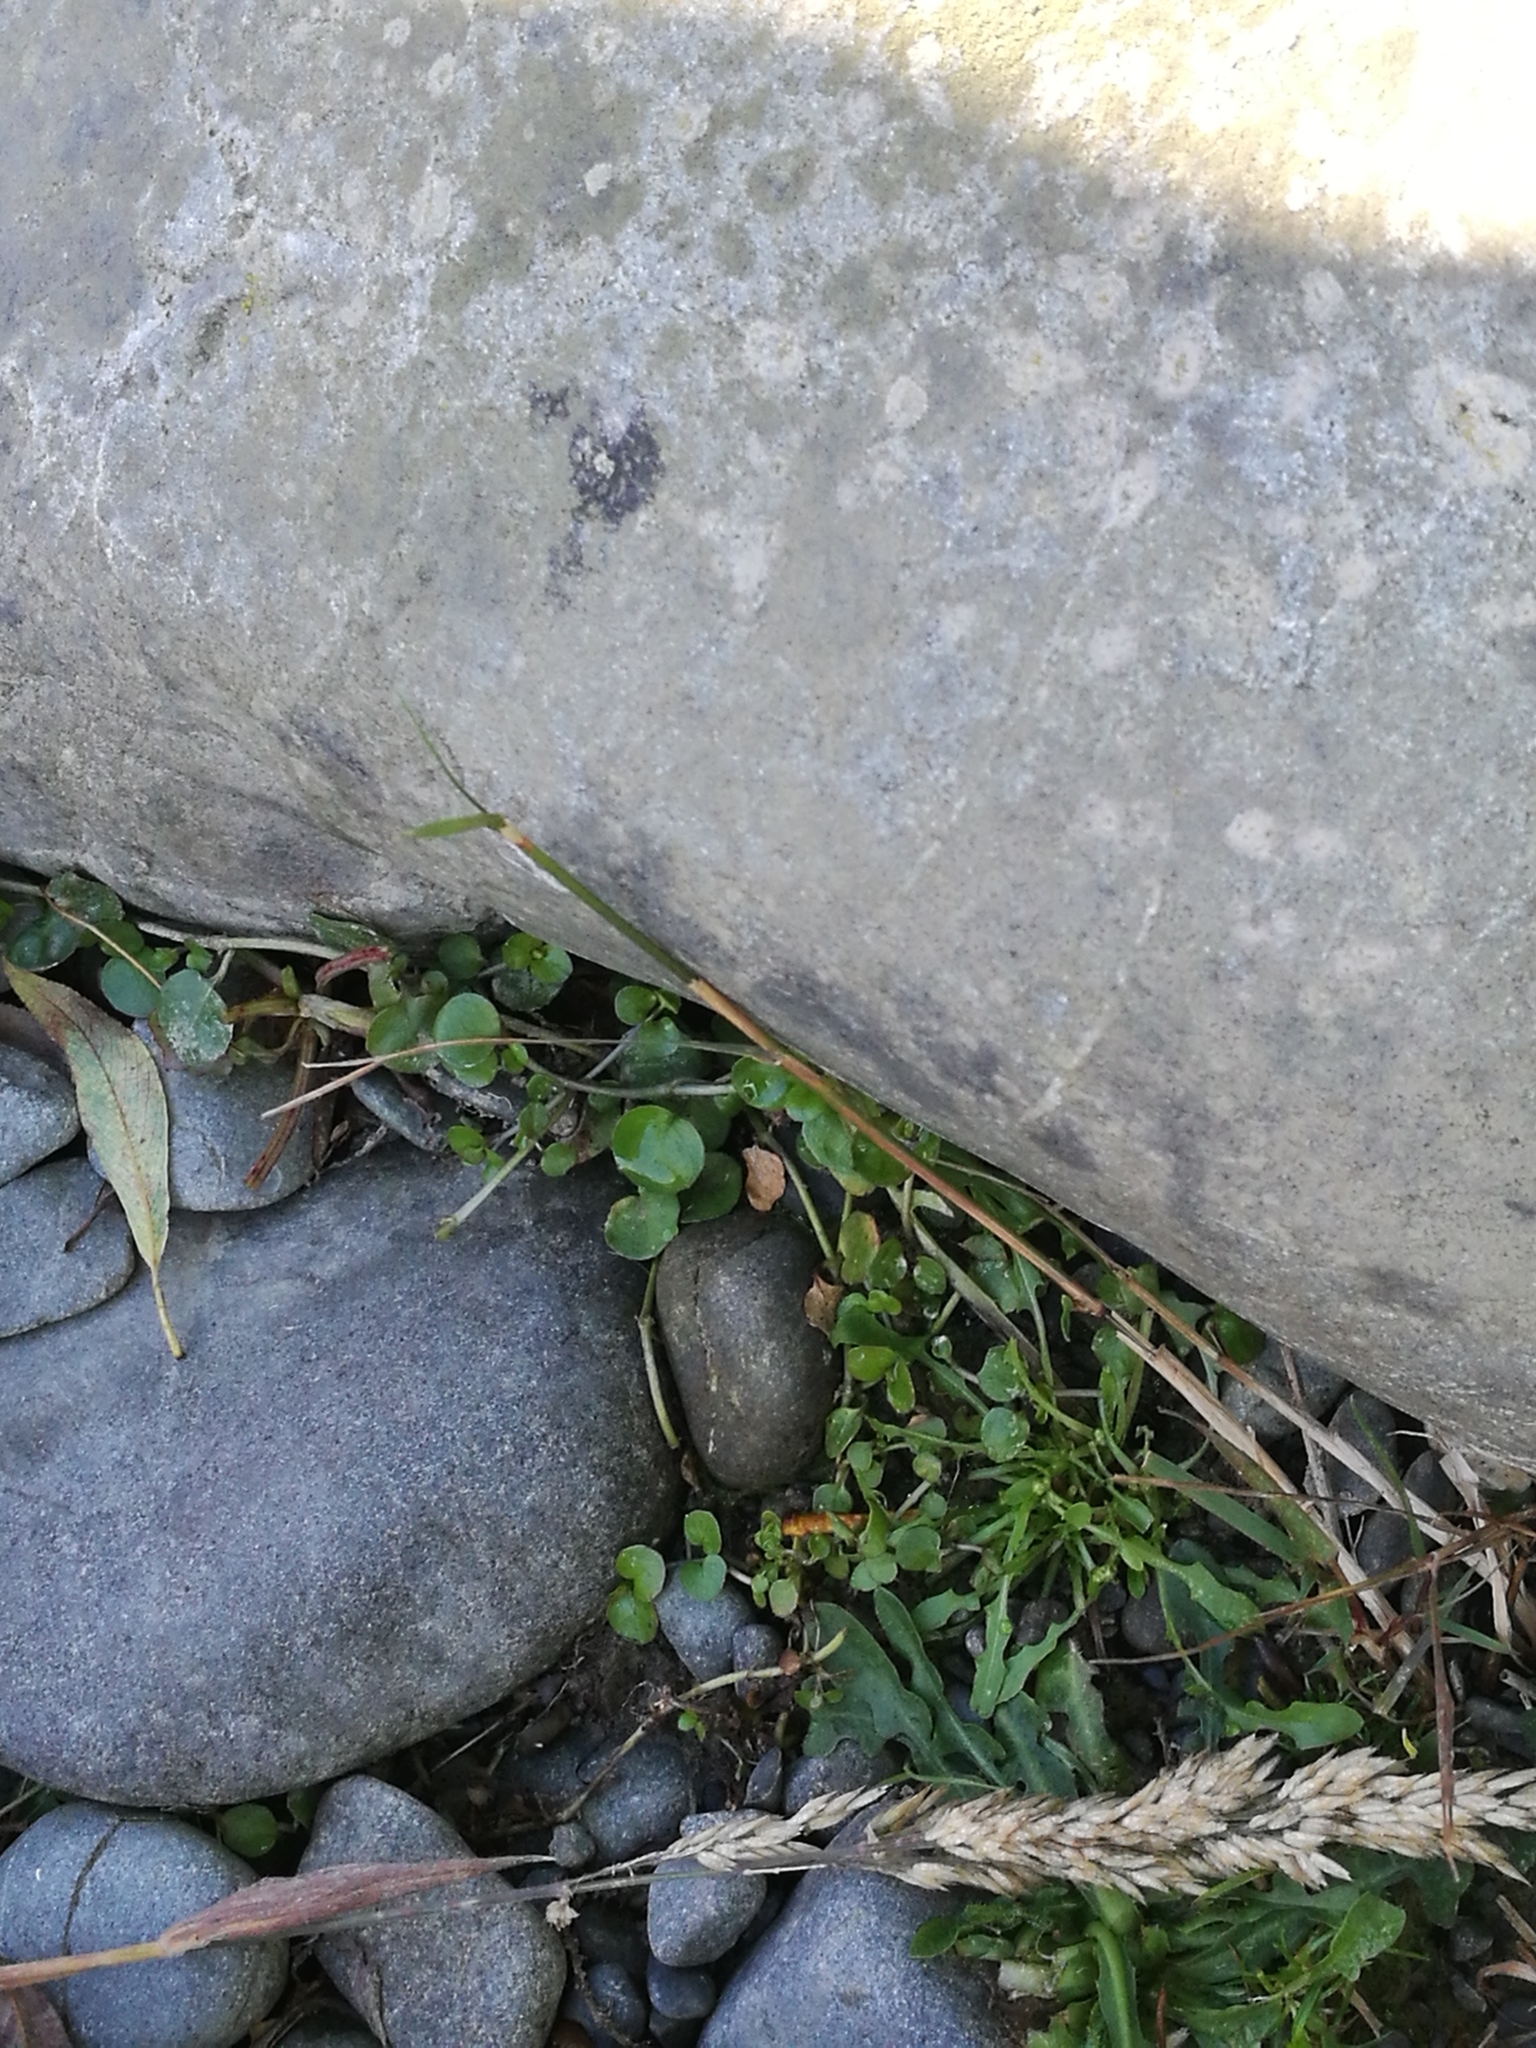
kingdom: Plantae
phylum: Tracheophyta
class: Magnoliopsida
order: Myrtales
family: Onagraceae
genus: Epilobium
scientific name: Epilobium nummularifolium
